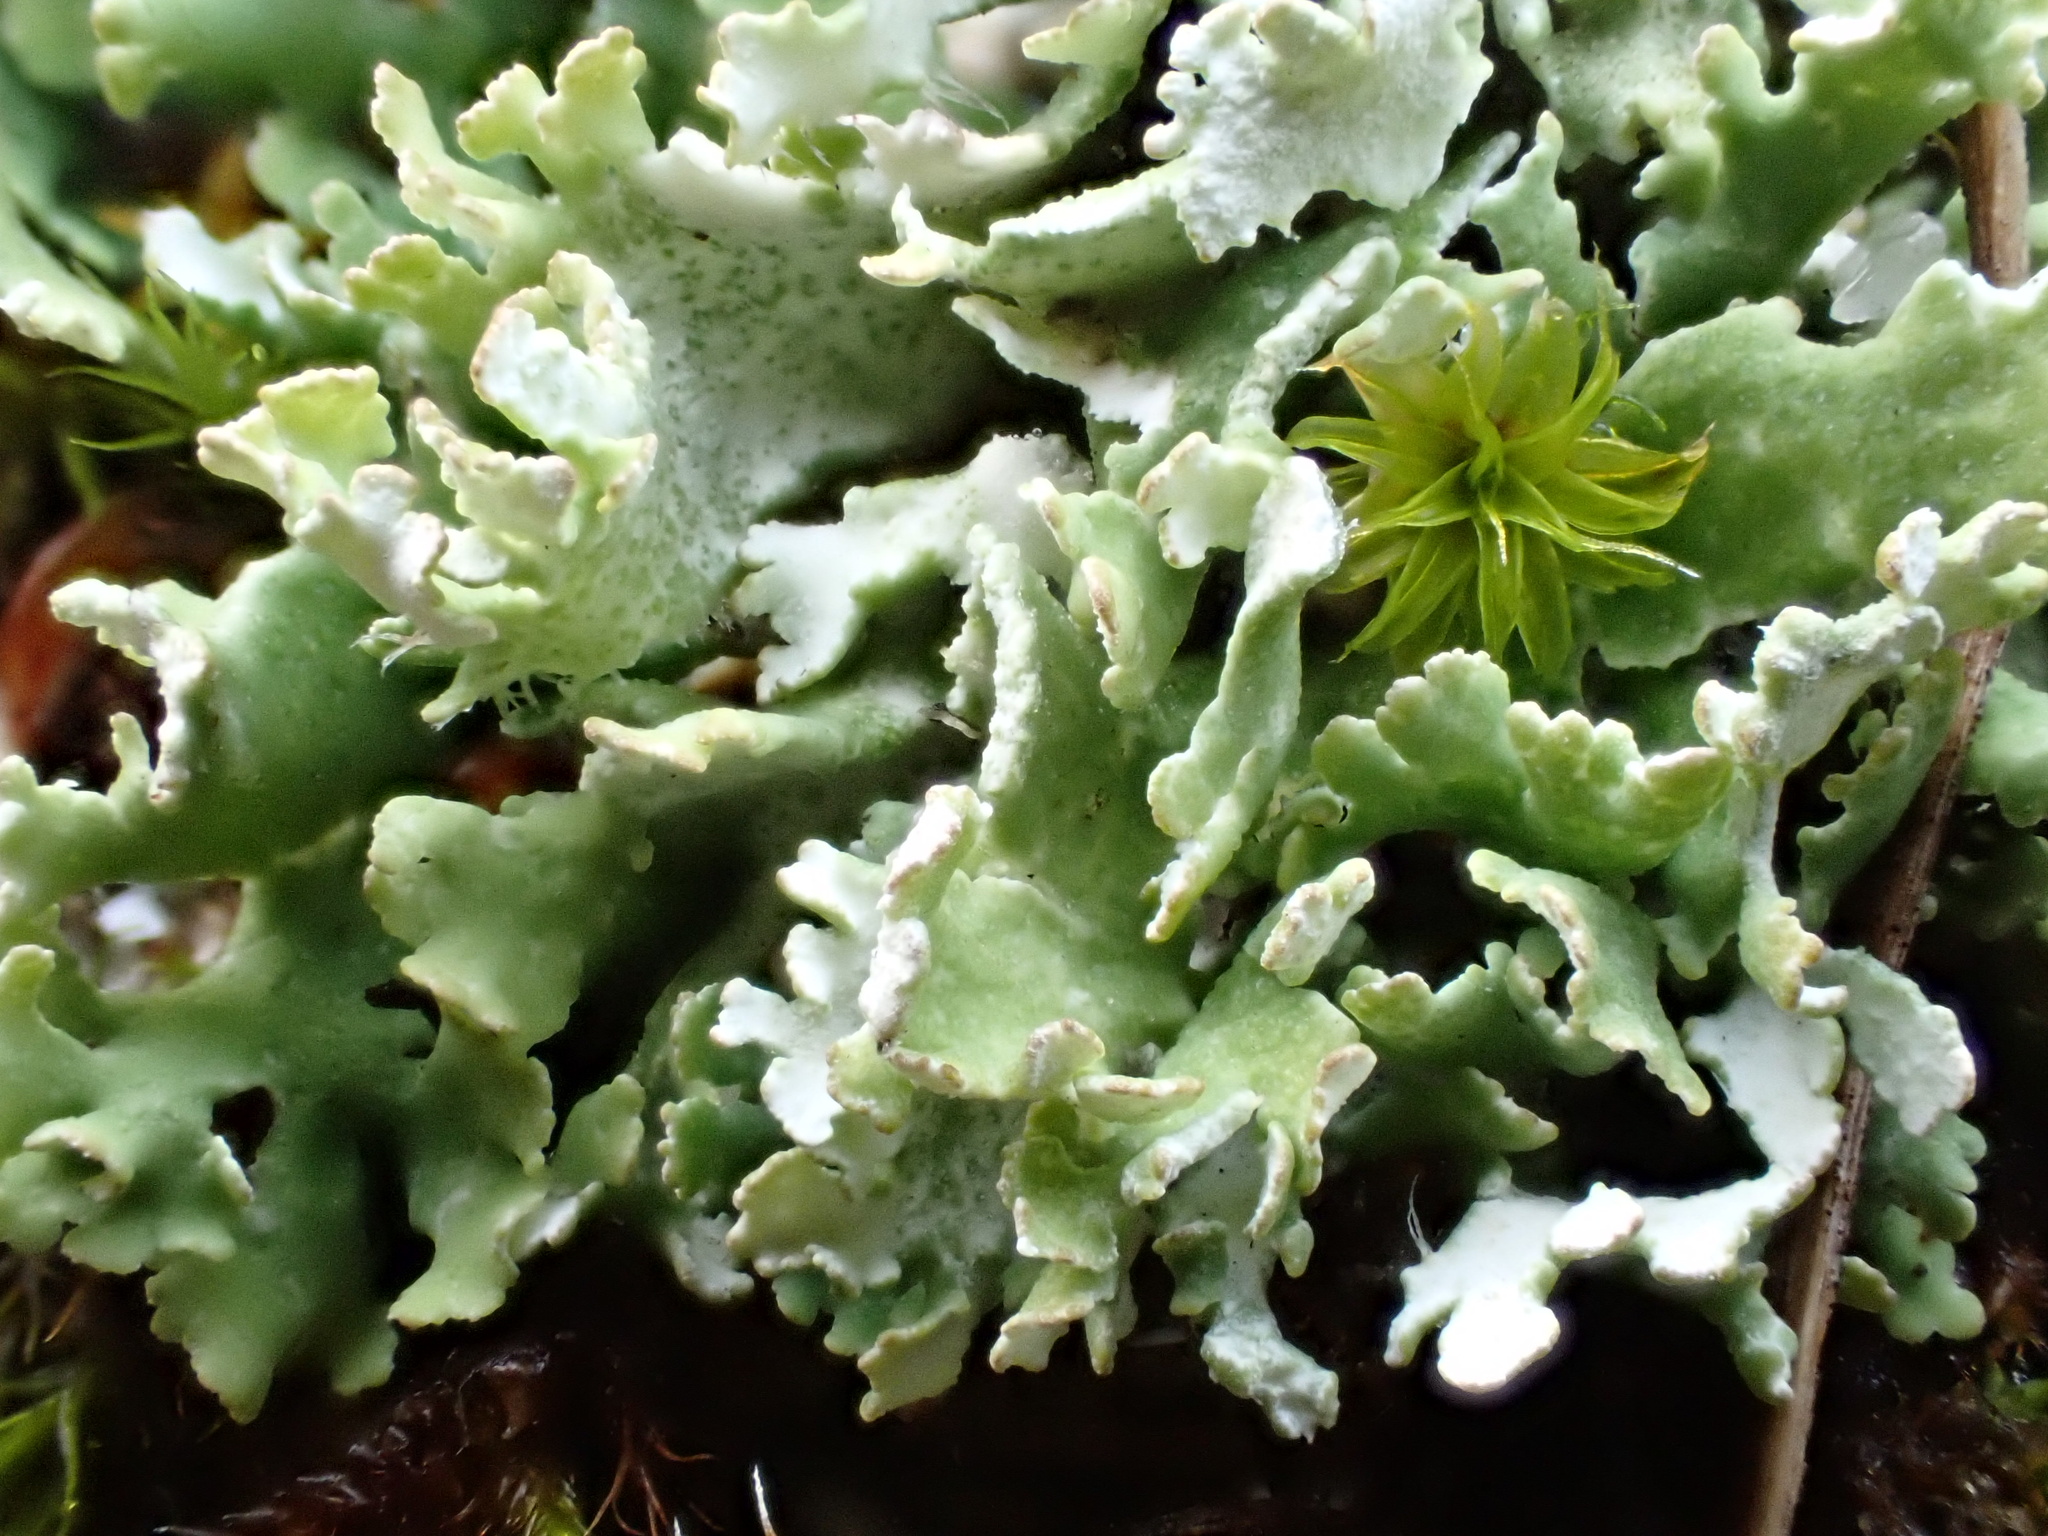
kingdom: Fungi
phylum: Ascomycota
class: Lecanoromycetes
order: Lecanorales
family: Cladoniaceae
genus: Cladonia
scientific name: Cladonia foliacea
